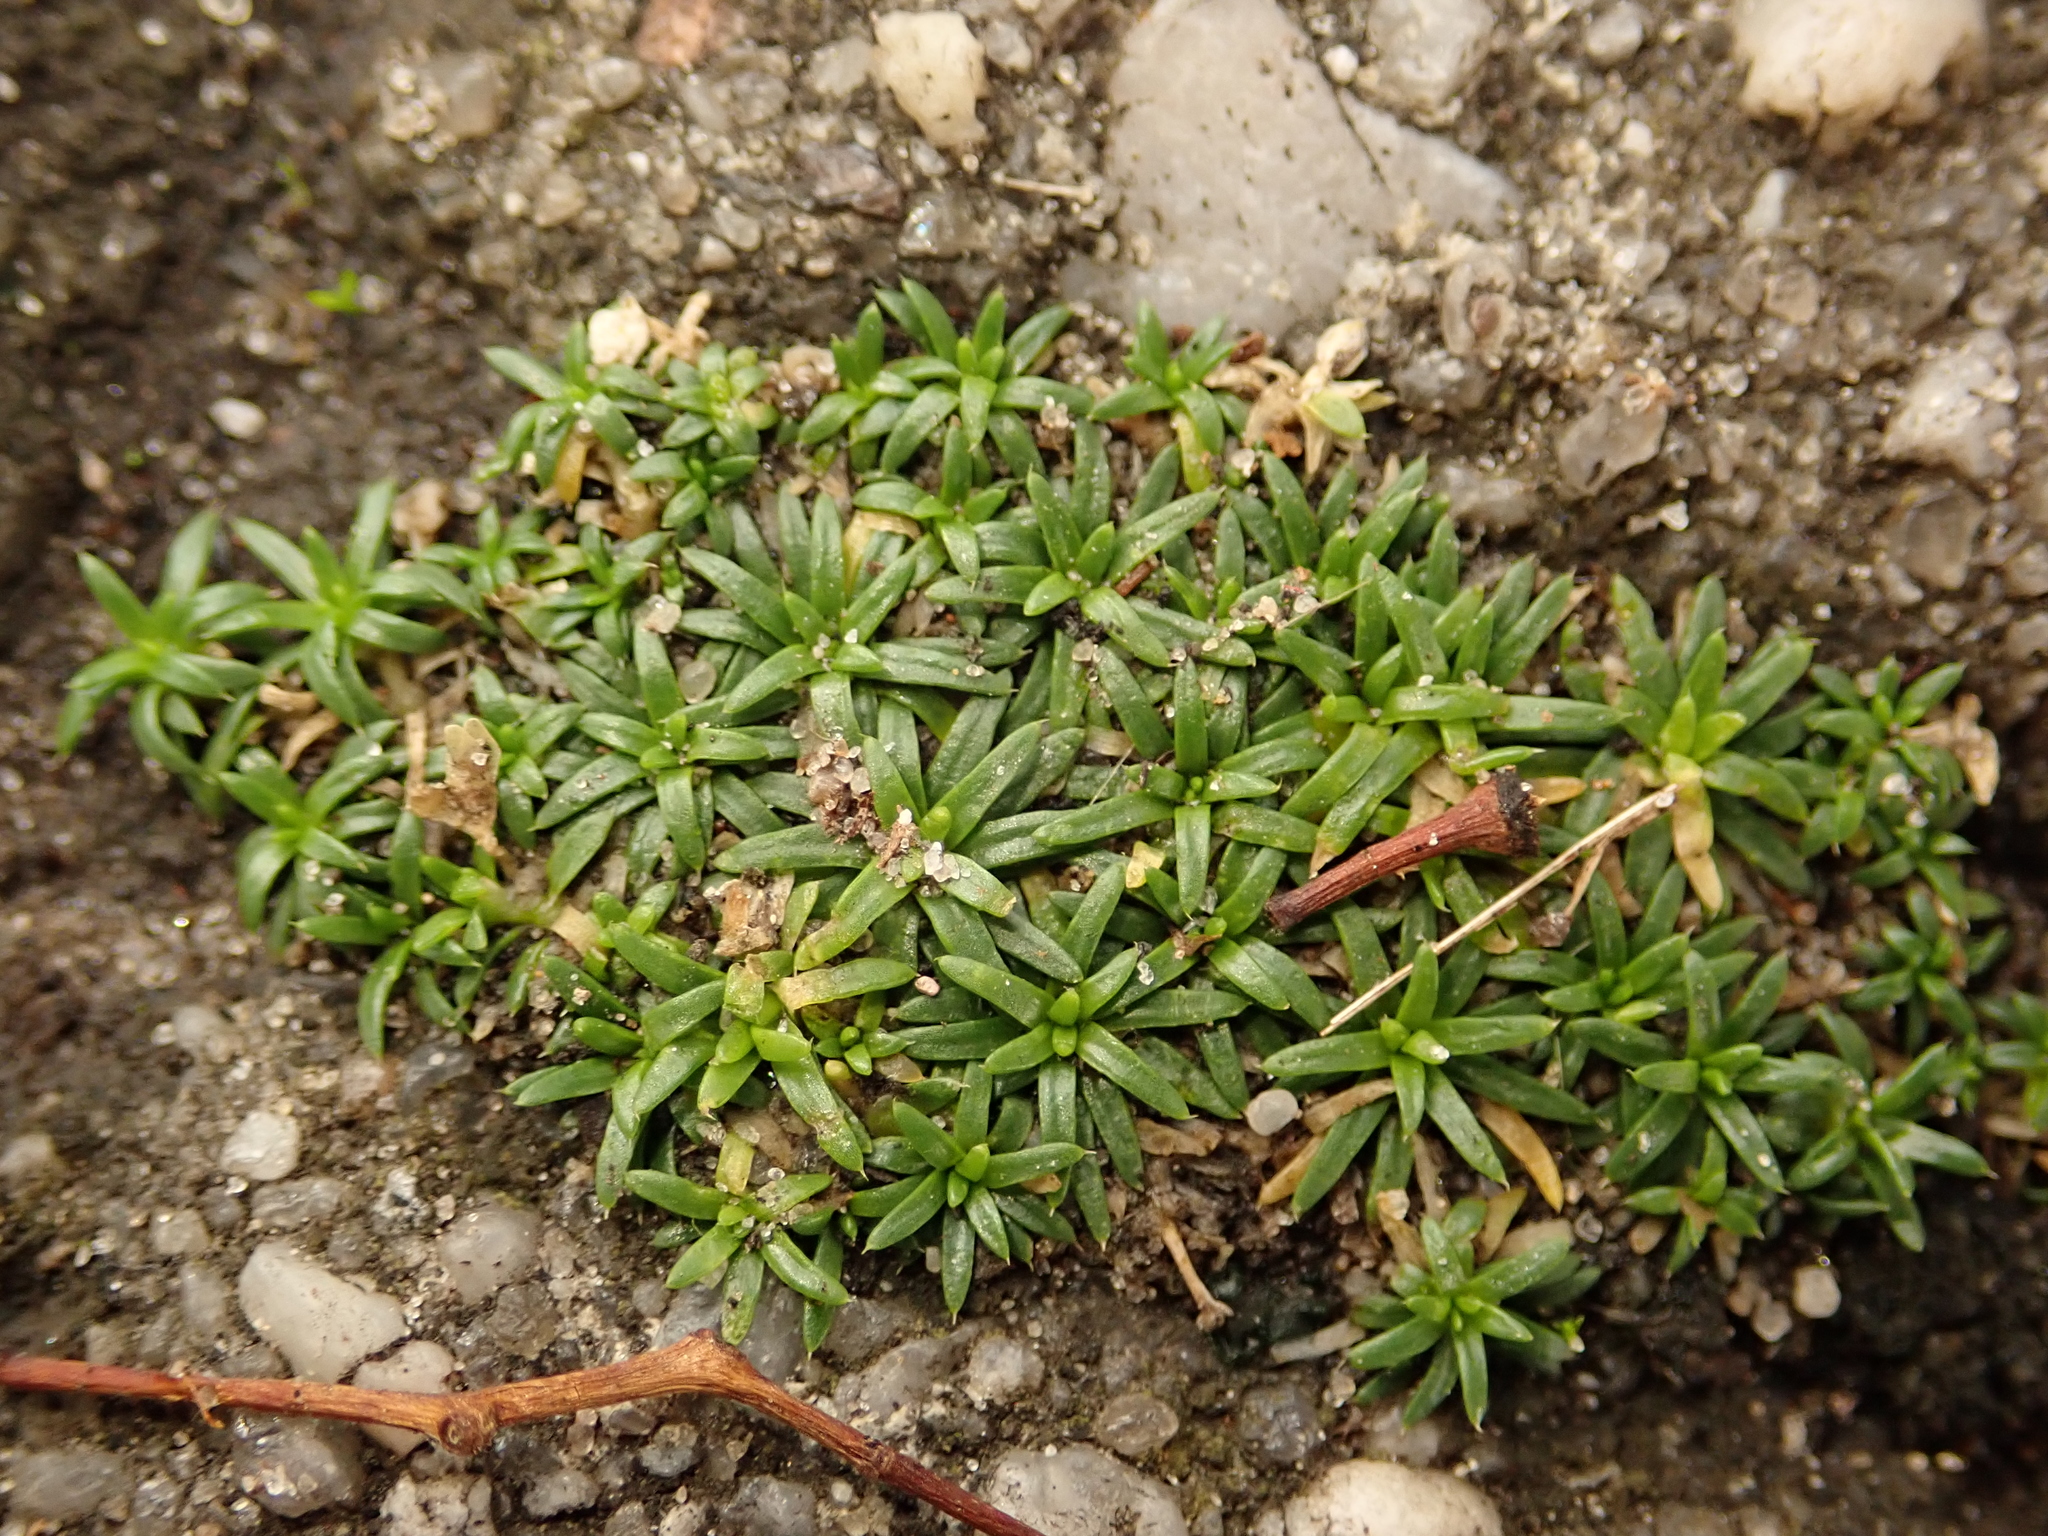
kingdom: Plantae
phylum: Tracheophyta
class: Magnoliopsida
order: Caryophyllales
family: Caryophyllaceae
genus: Sagina
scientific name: Sagina procumbens
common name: Procumbent pearlwort
